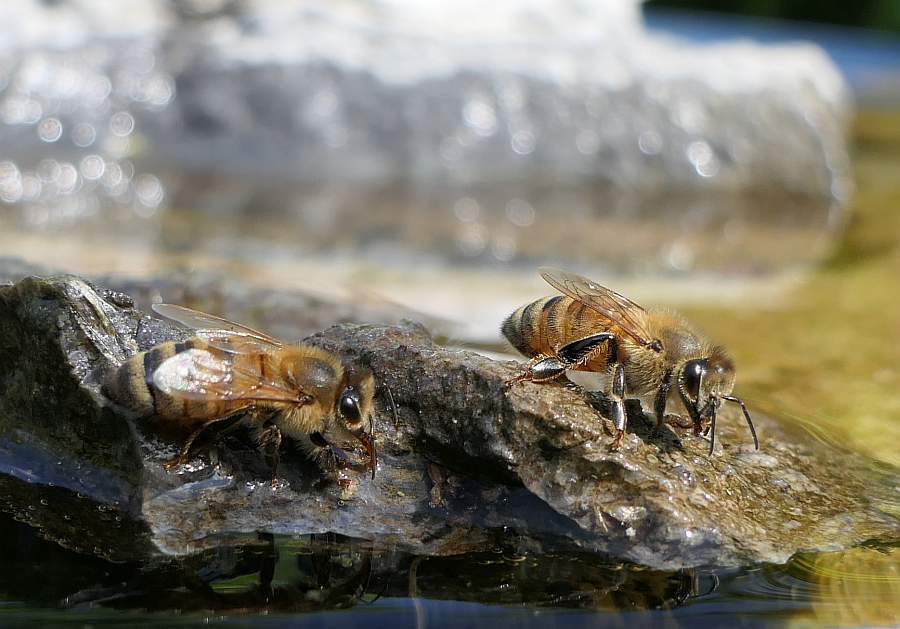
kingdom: Animalia
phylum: Arthropoda
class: Insecta
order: Hymenoptera
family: Apidae
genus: Apis
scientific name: Apis mellifera
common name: Honey bee
